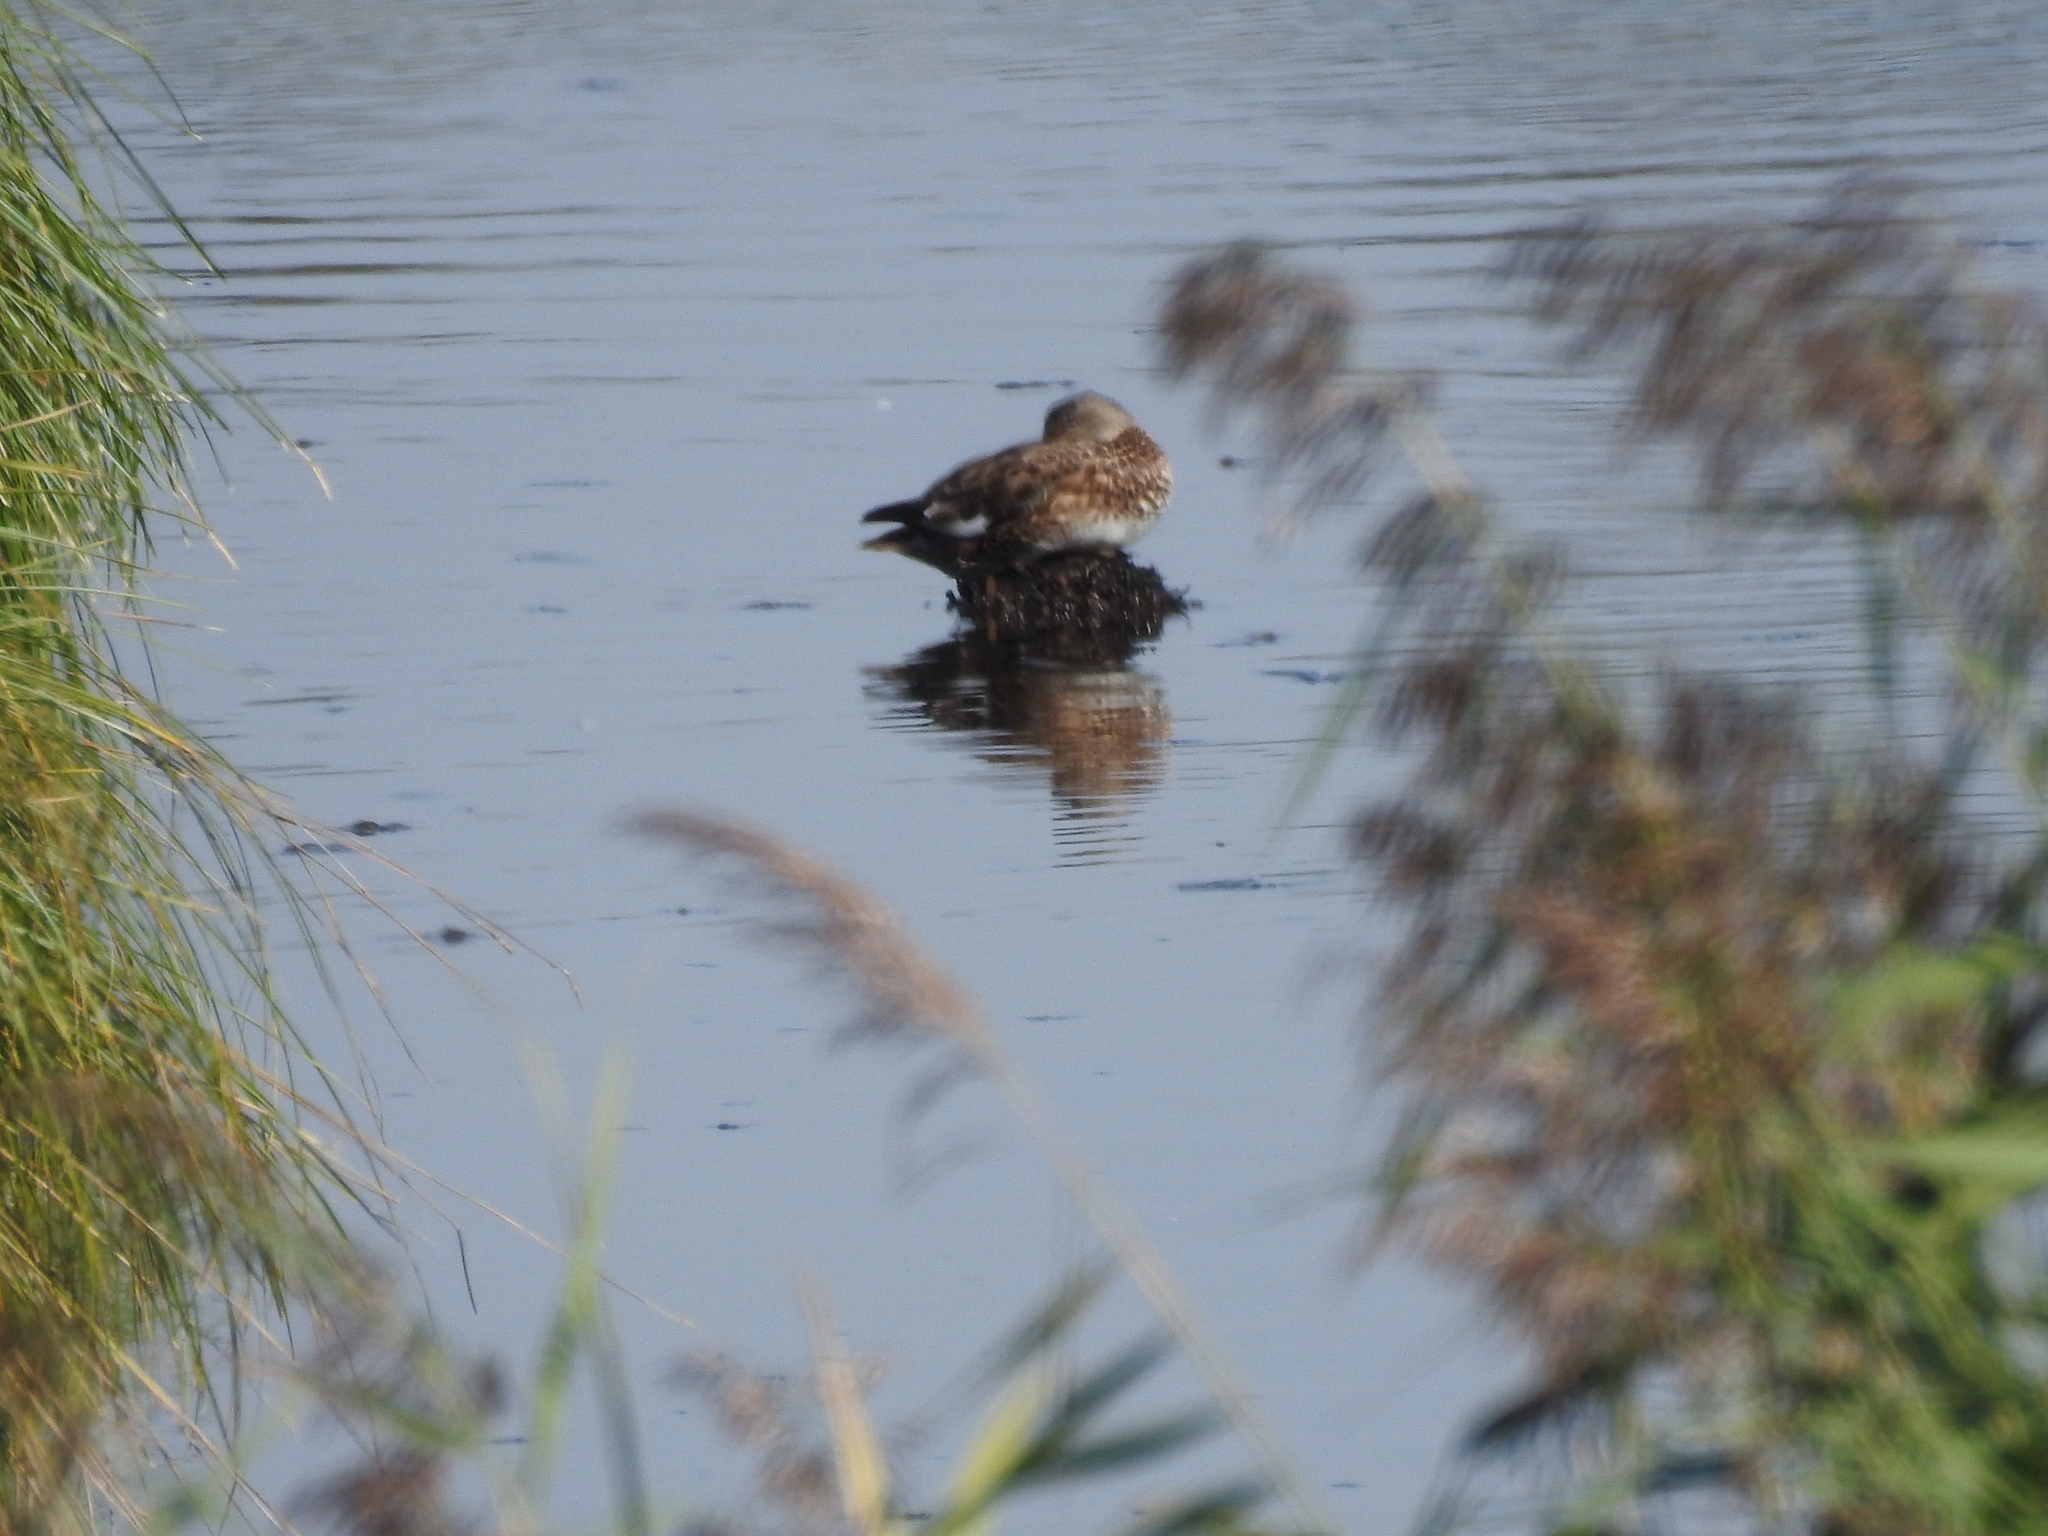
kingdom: Animalia
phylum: Chordata
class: Aves
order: Anseriformes
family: Anatidae
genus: Mareca
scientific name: Mareca strepera
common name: Gadwall
